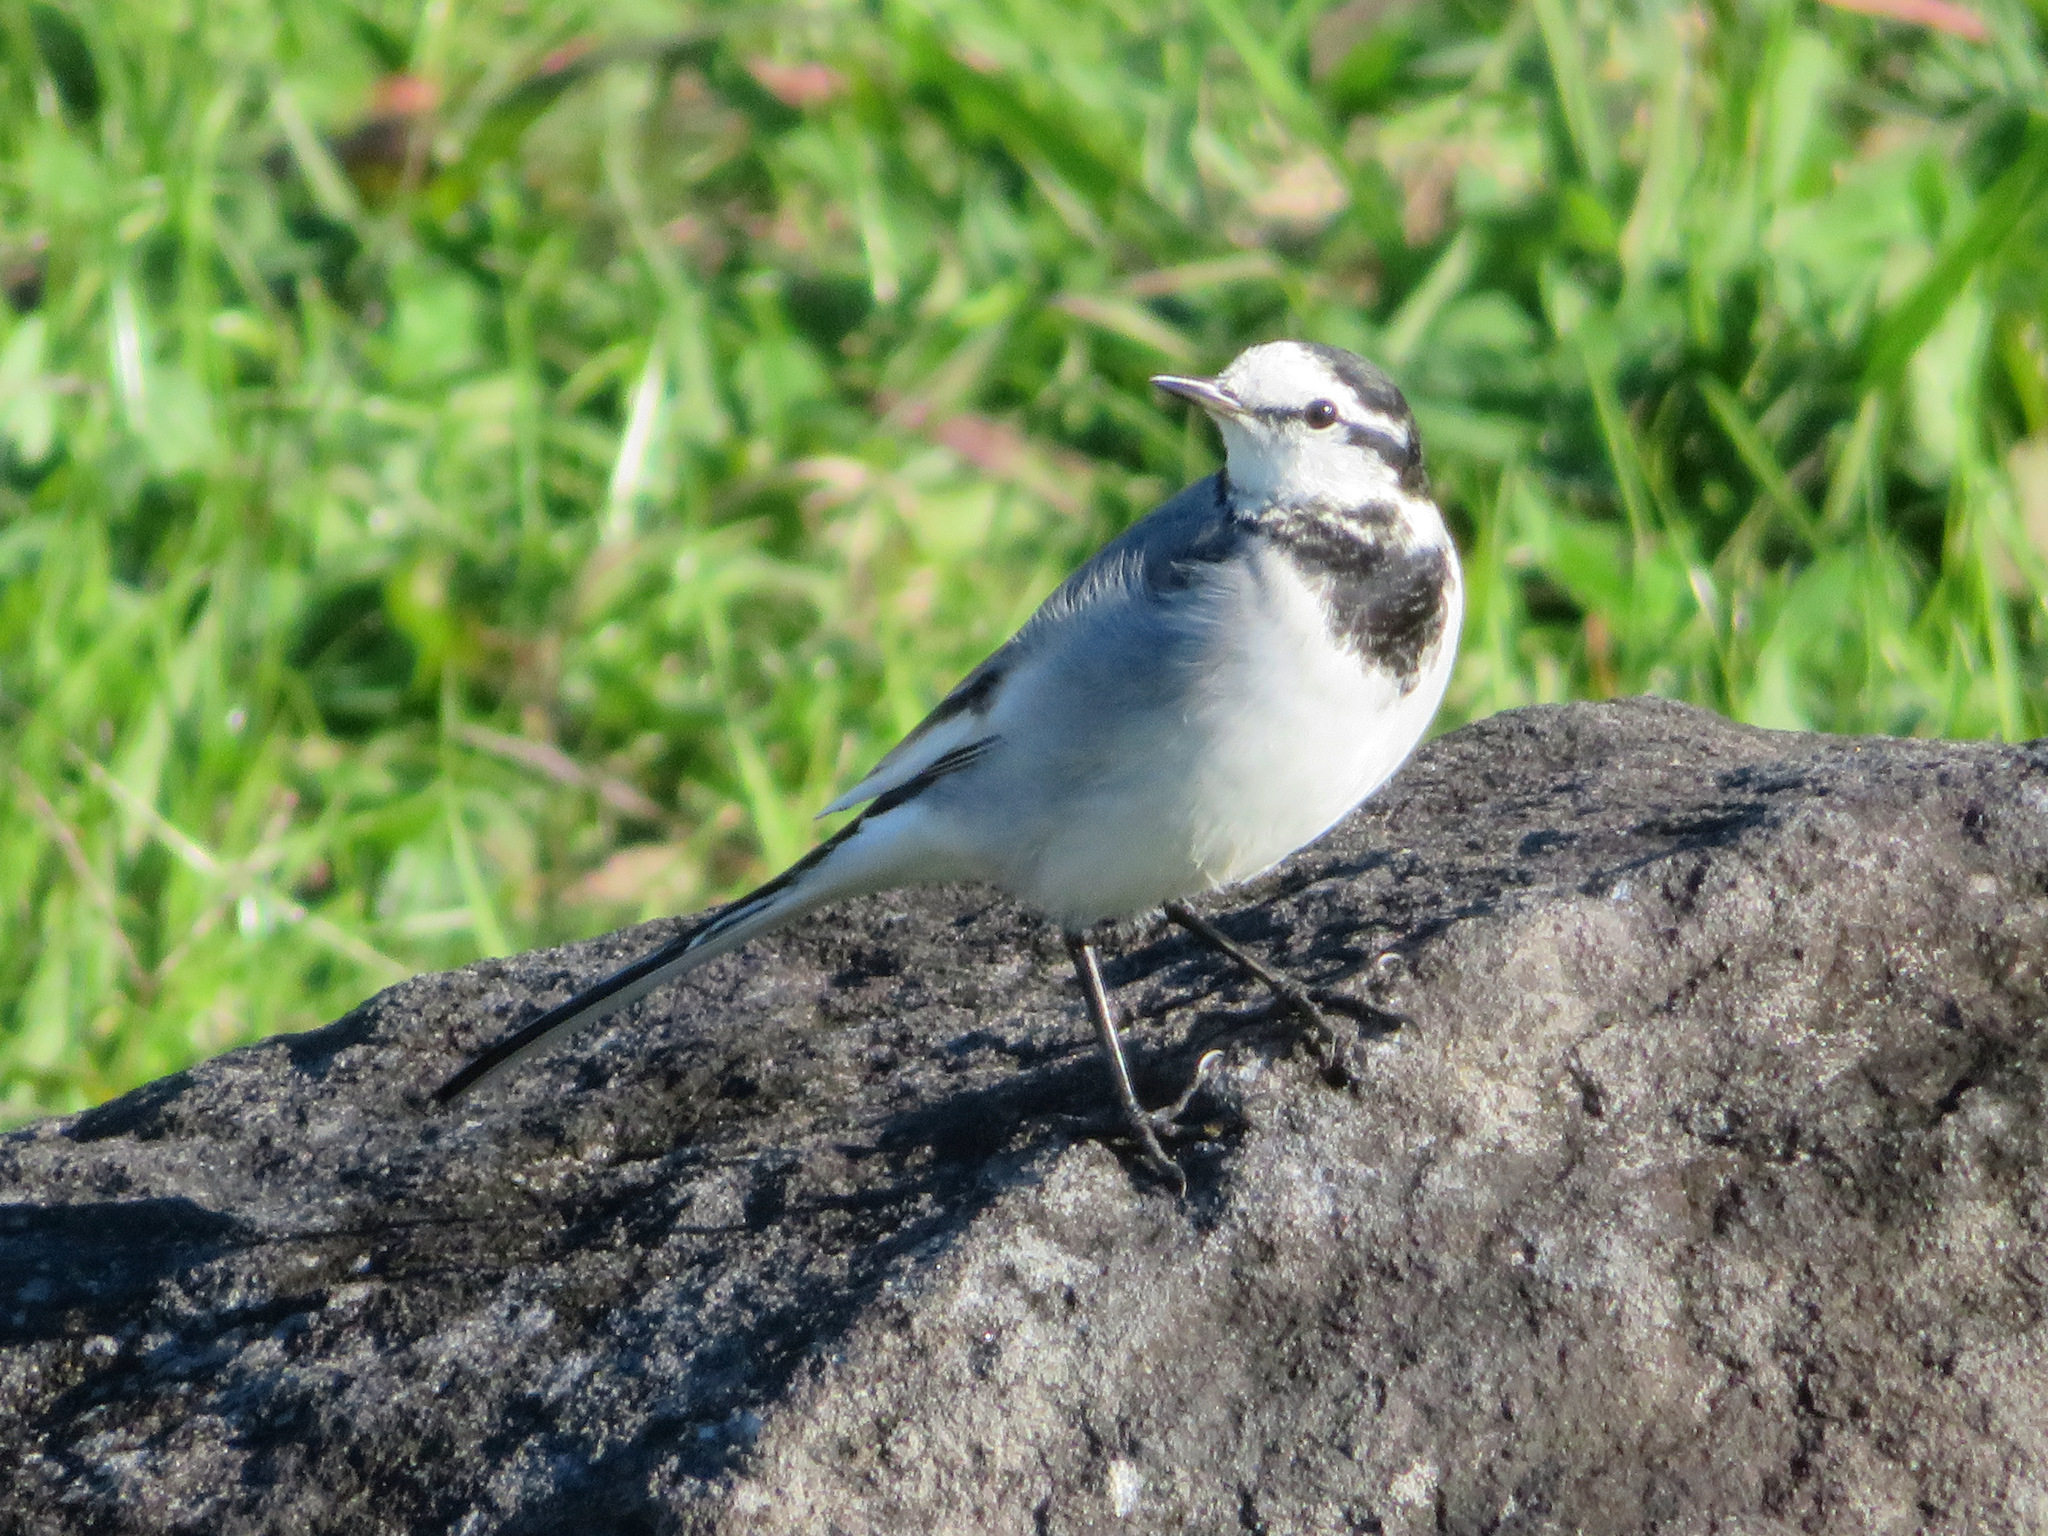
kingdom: Animalia
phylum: Chordata
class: Aves
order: Passeriformes
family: Motacillidae
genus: Motacilla
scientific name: Motacilla alba
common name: White wagtail
